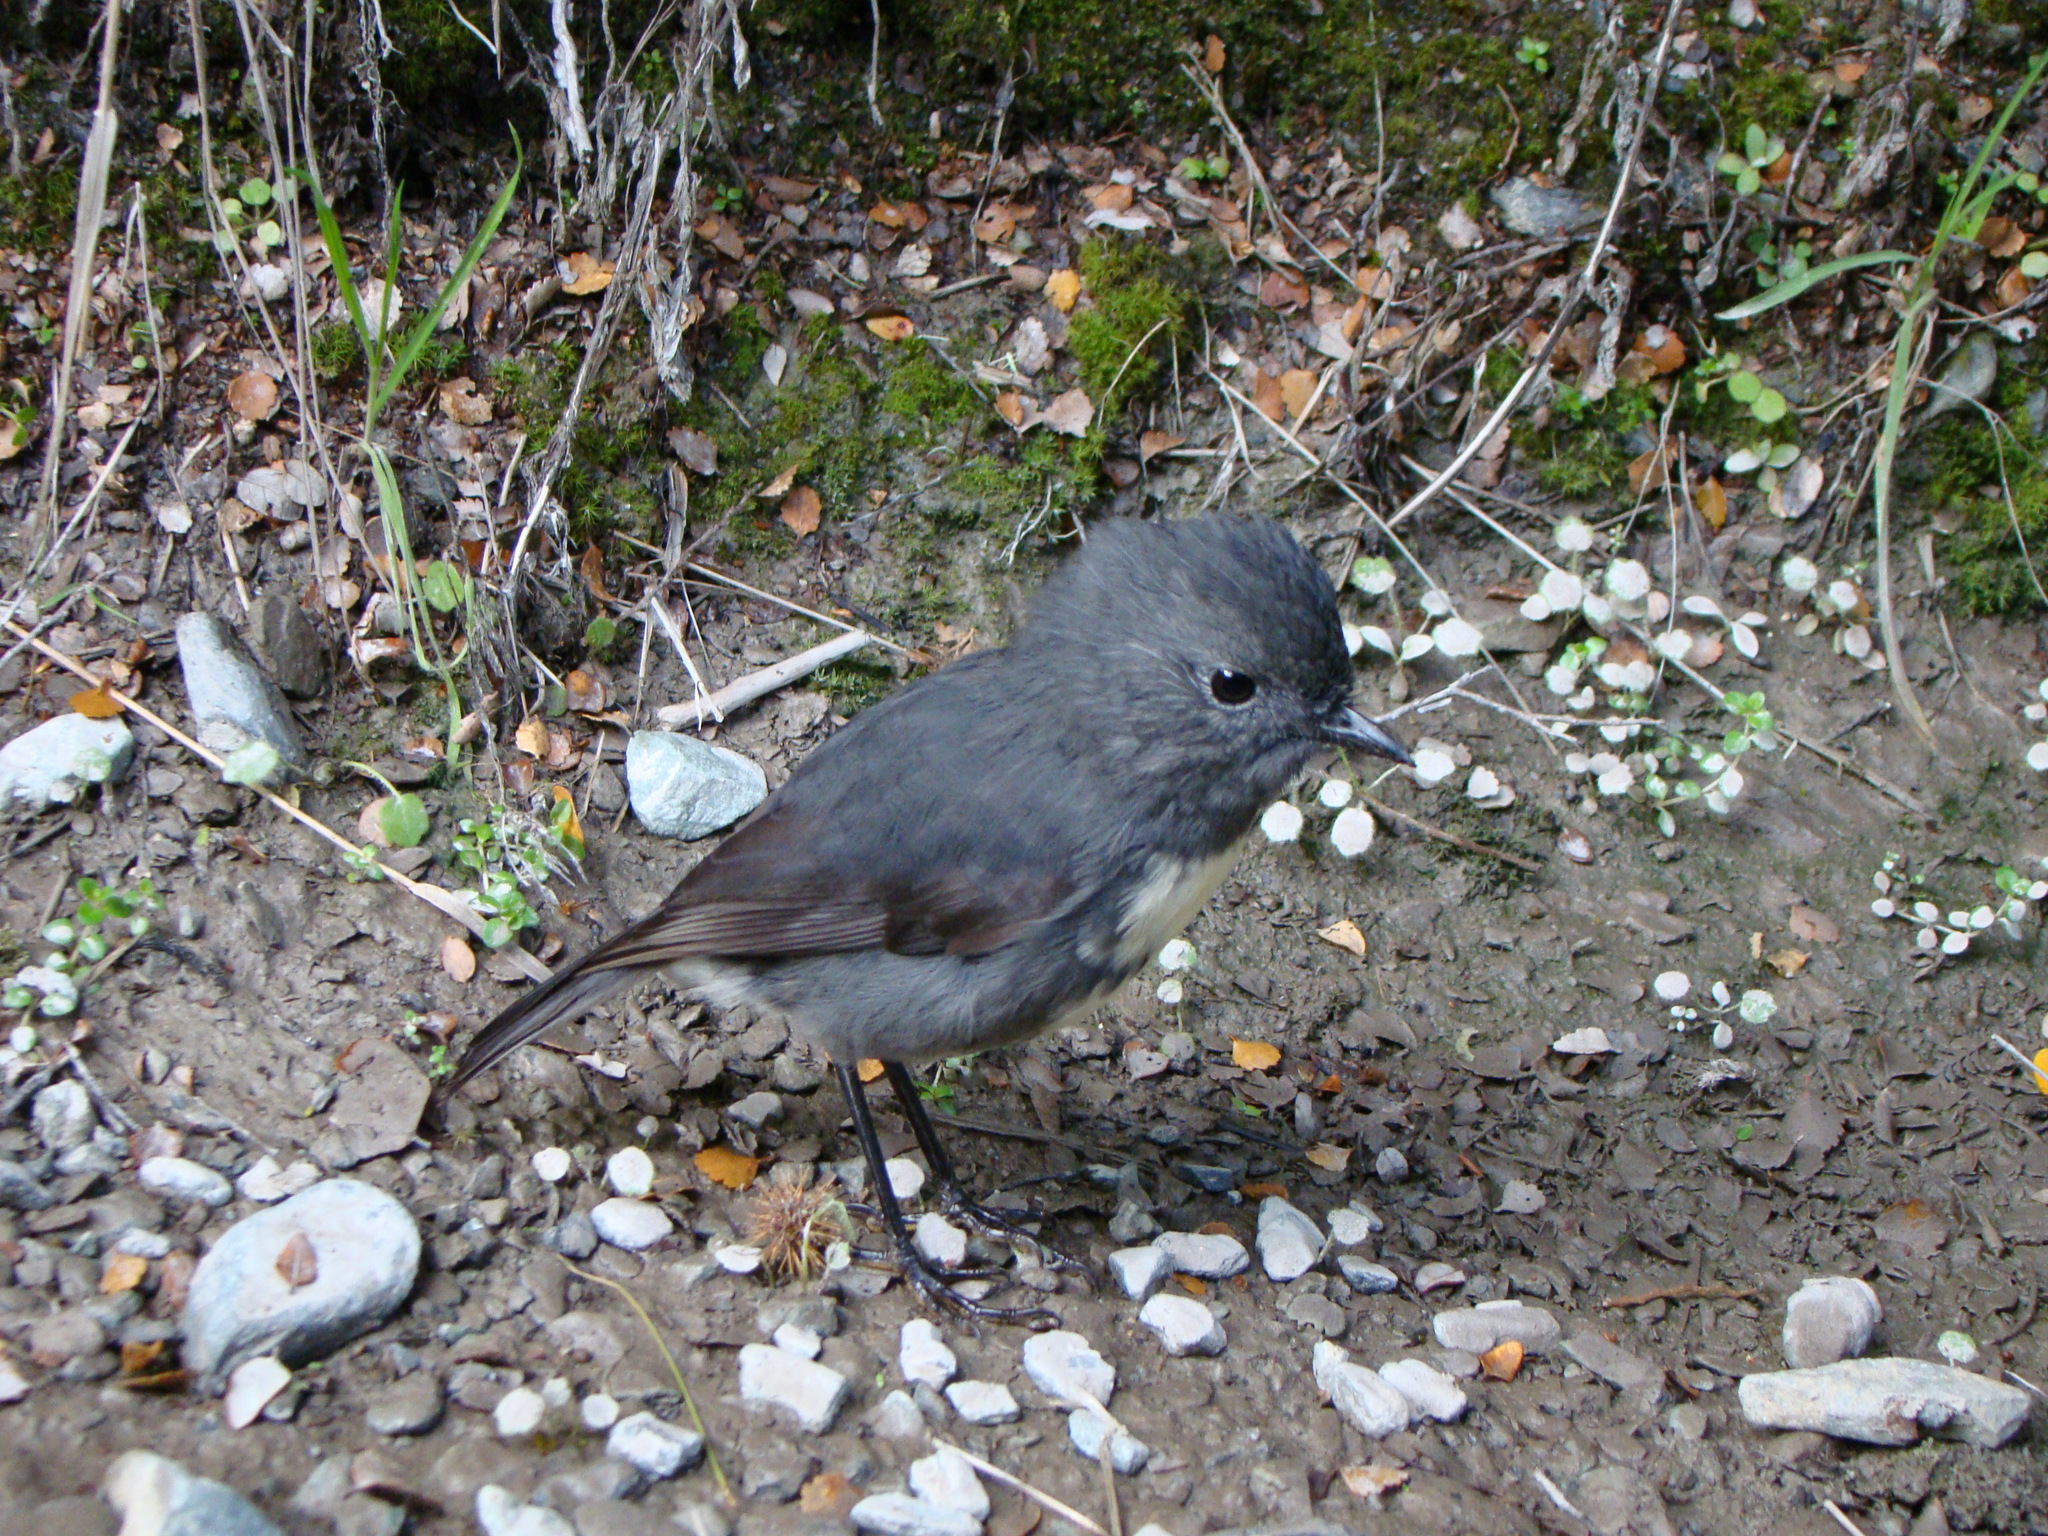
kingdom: Animalia
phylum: Chordata
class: Aves
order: Passeriformes
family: Petroicidae
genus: Petroica
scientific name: Petroica australis
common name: New zealand robin
